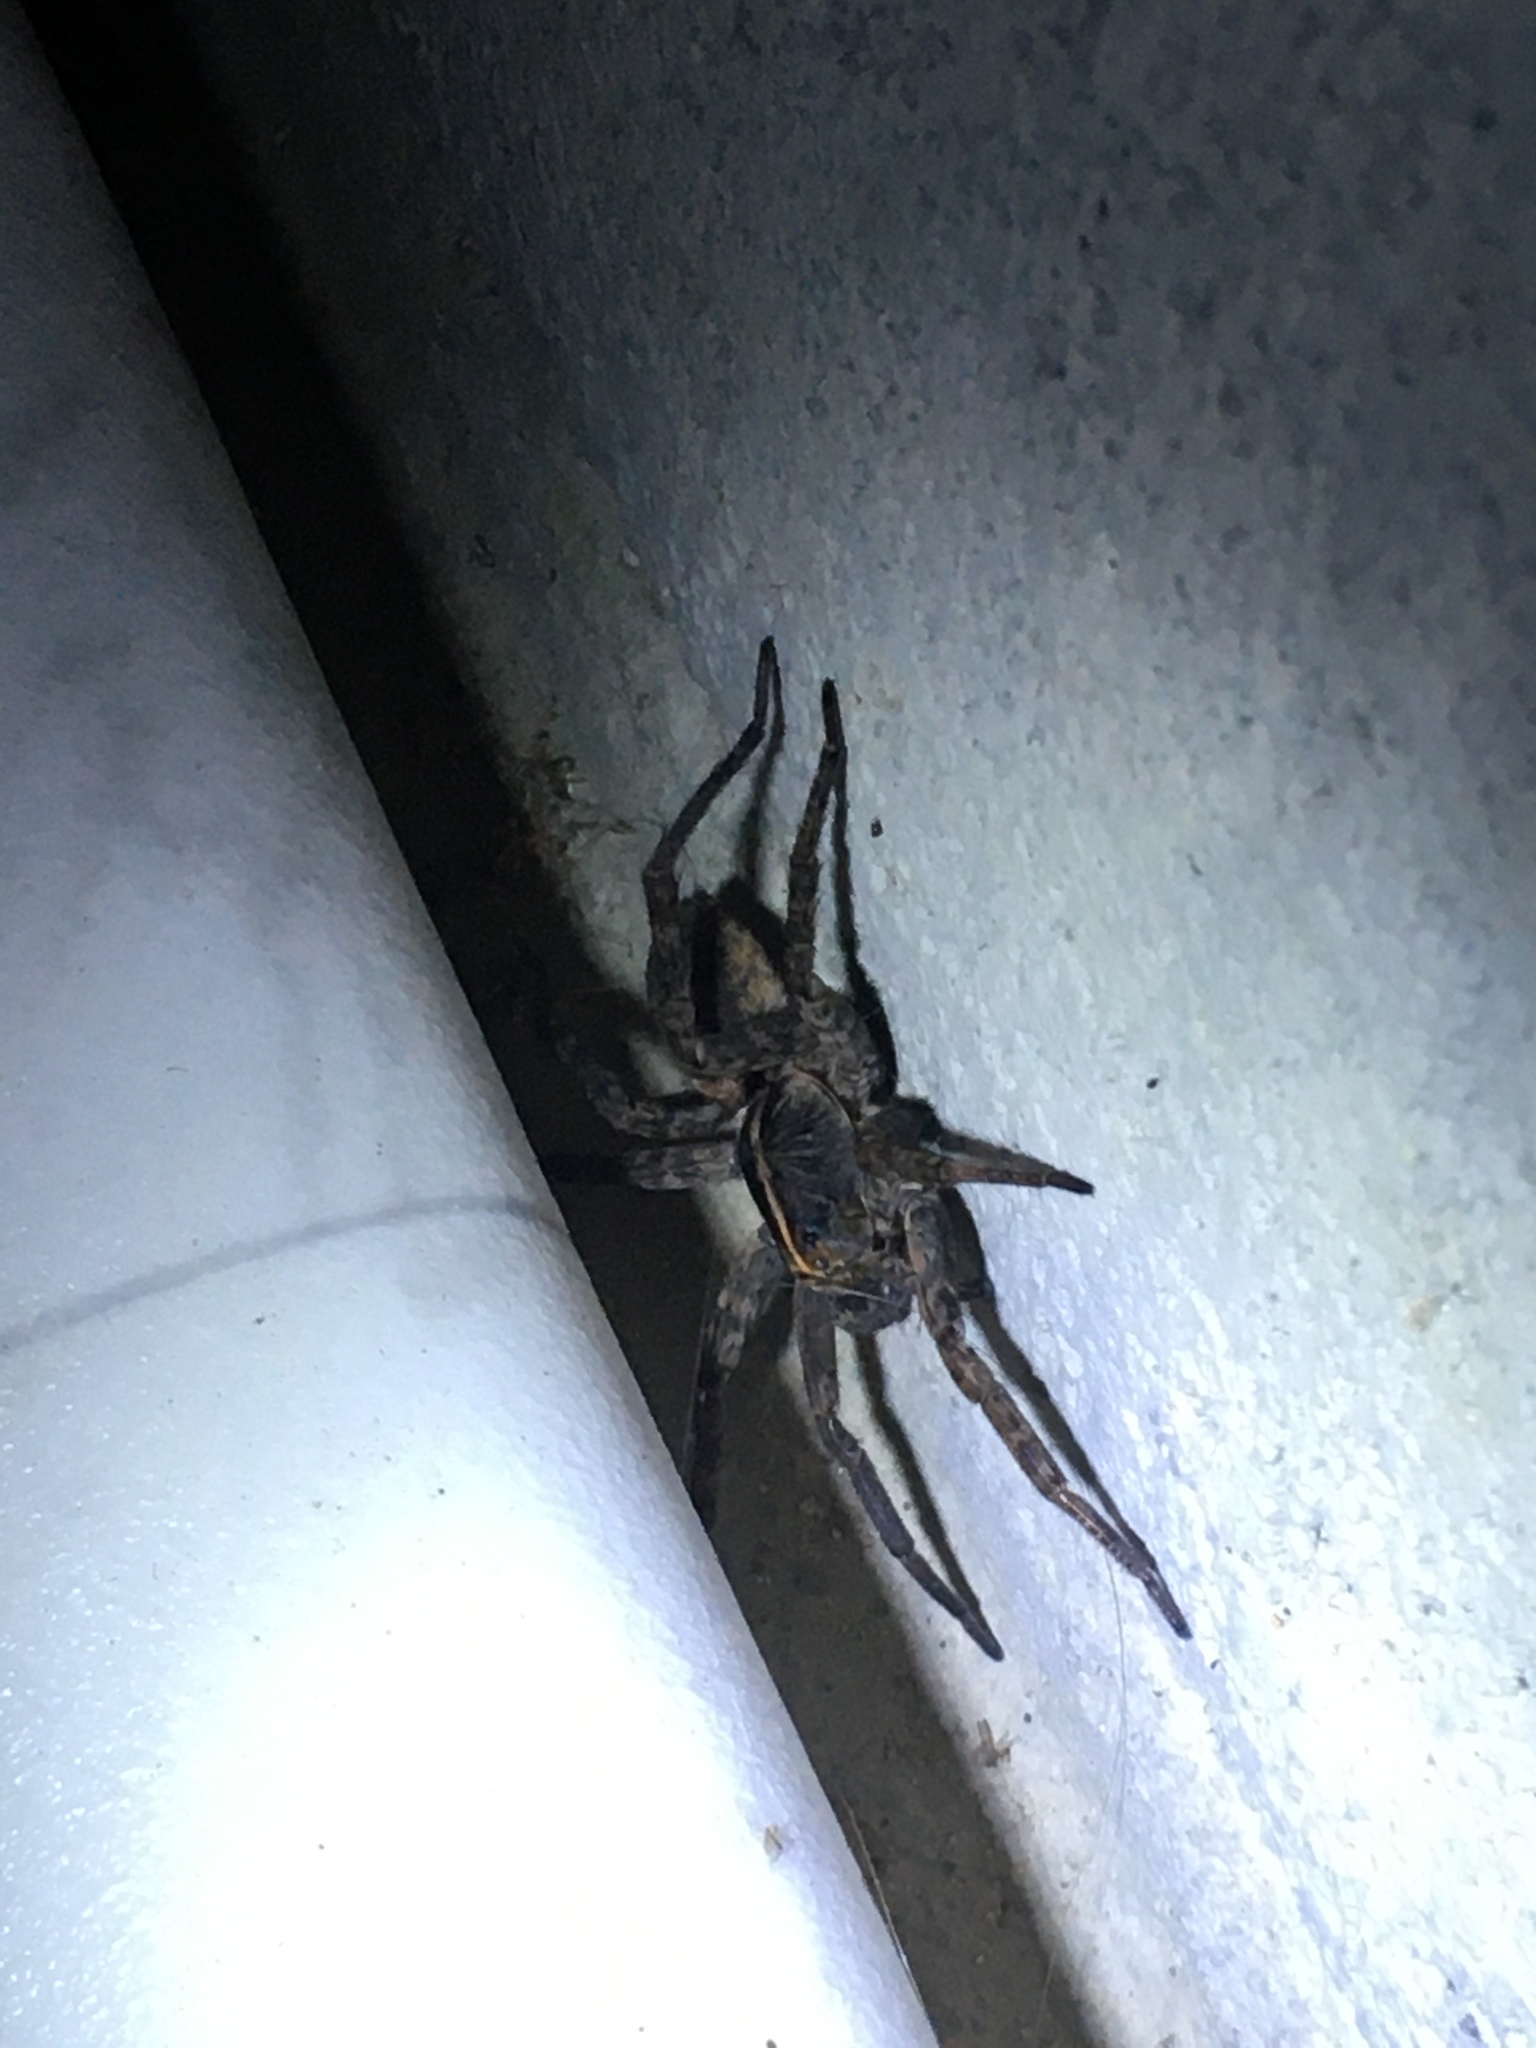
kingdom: Animalia
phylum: Arthropoda
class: Arachnida
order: Araneae
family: Lycosidae
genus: Tigrosa
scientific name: Tigrosa georgicola
